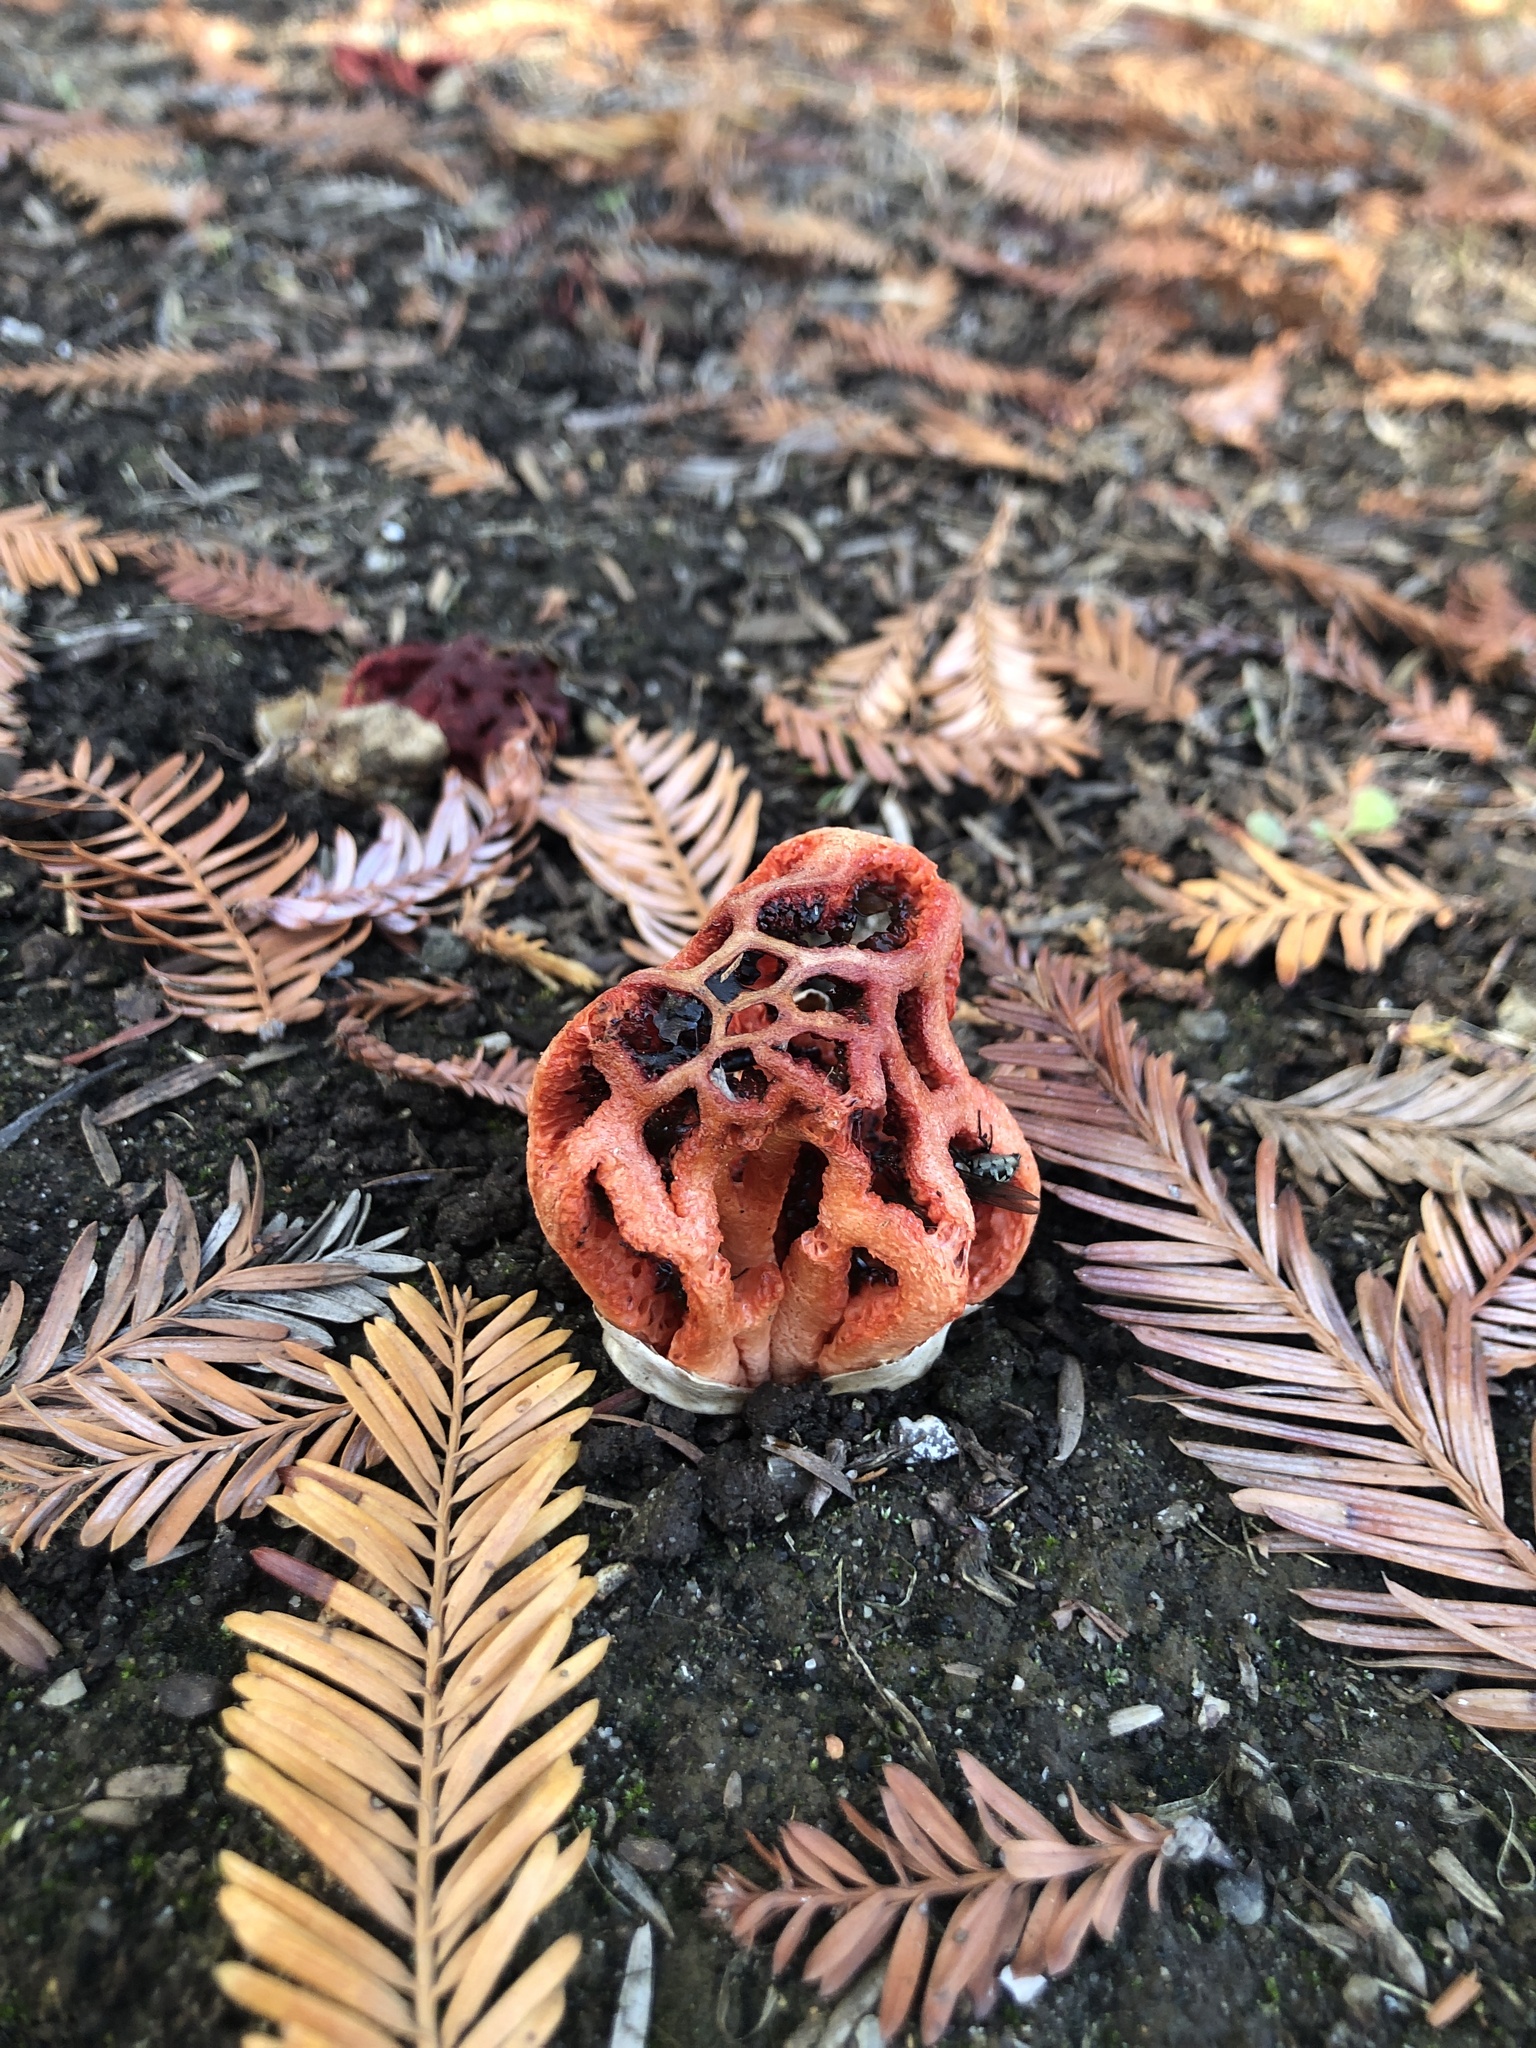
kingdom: Fungi
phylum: Basidiomycota
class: Agaricomycetes
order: Phallales
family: Phallaceae
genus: Clathrus
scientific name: Clathrus ruber
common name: Red cage
